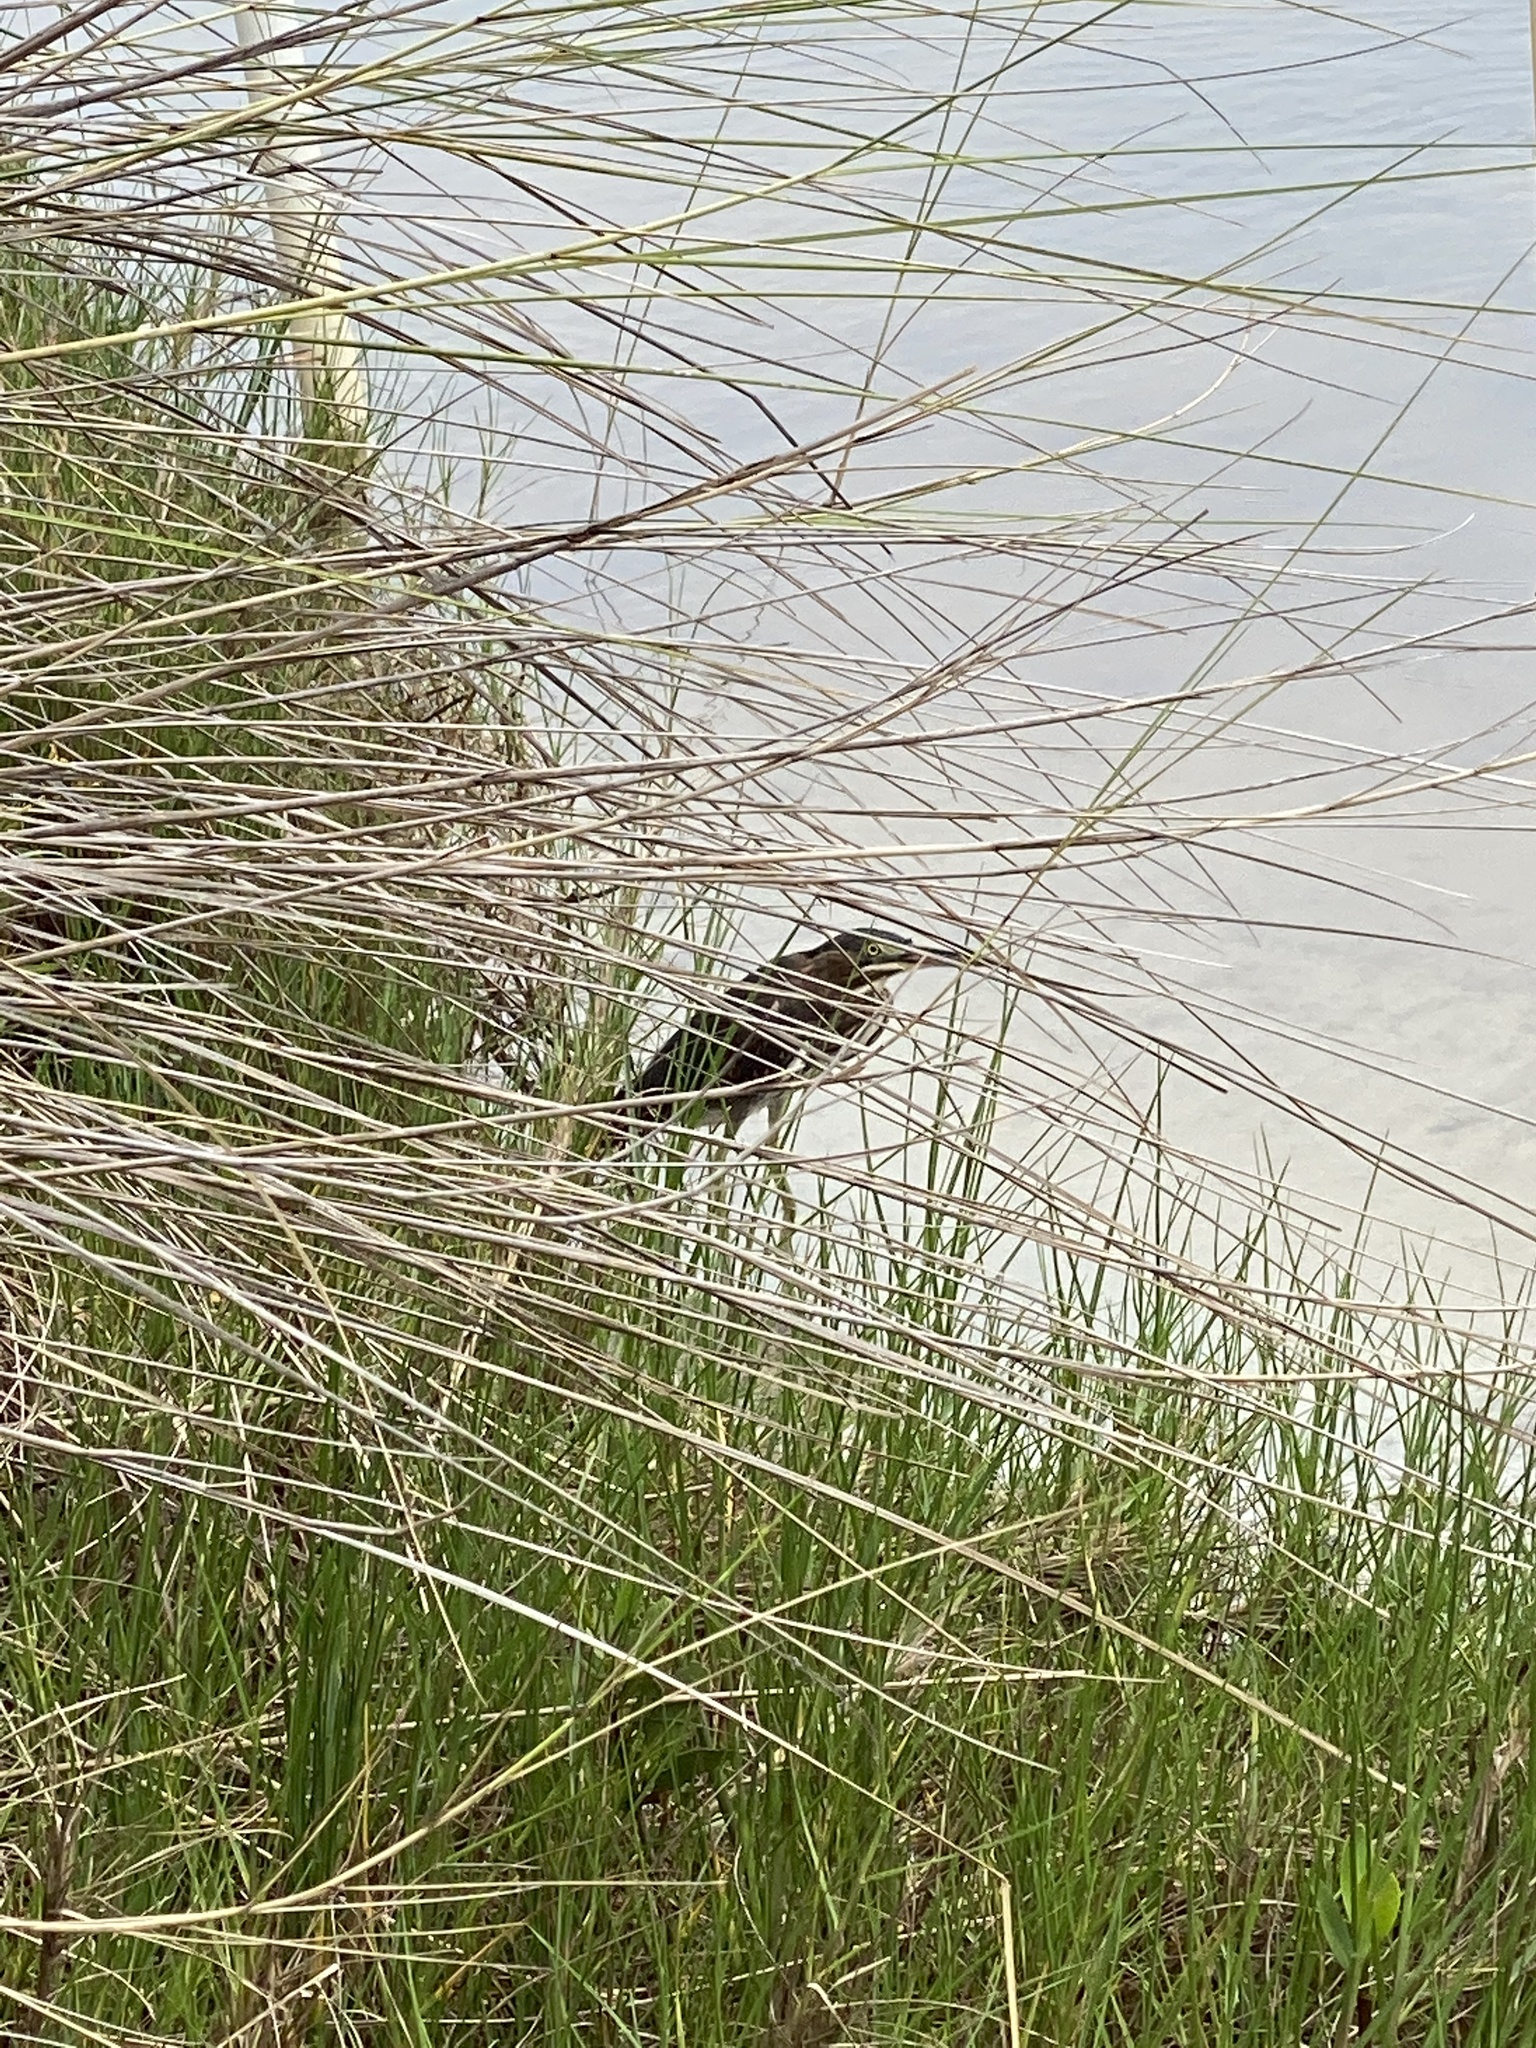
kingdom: Animalia
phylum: Chordata
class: Aves
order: Pelecaniformes
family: Ardeidae
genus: Butorides
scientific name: Butorides virescens
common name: Green heron
